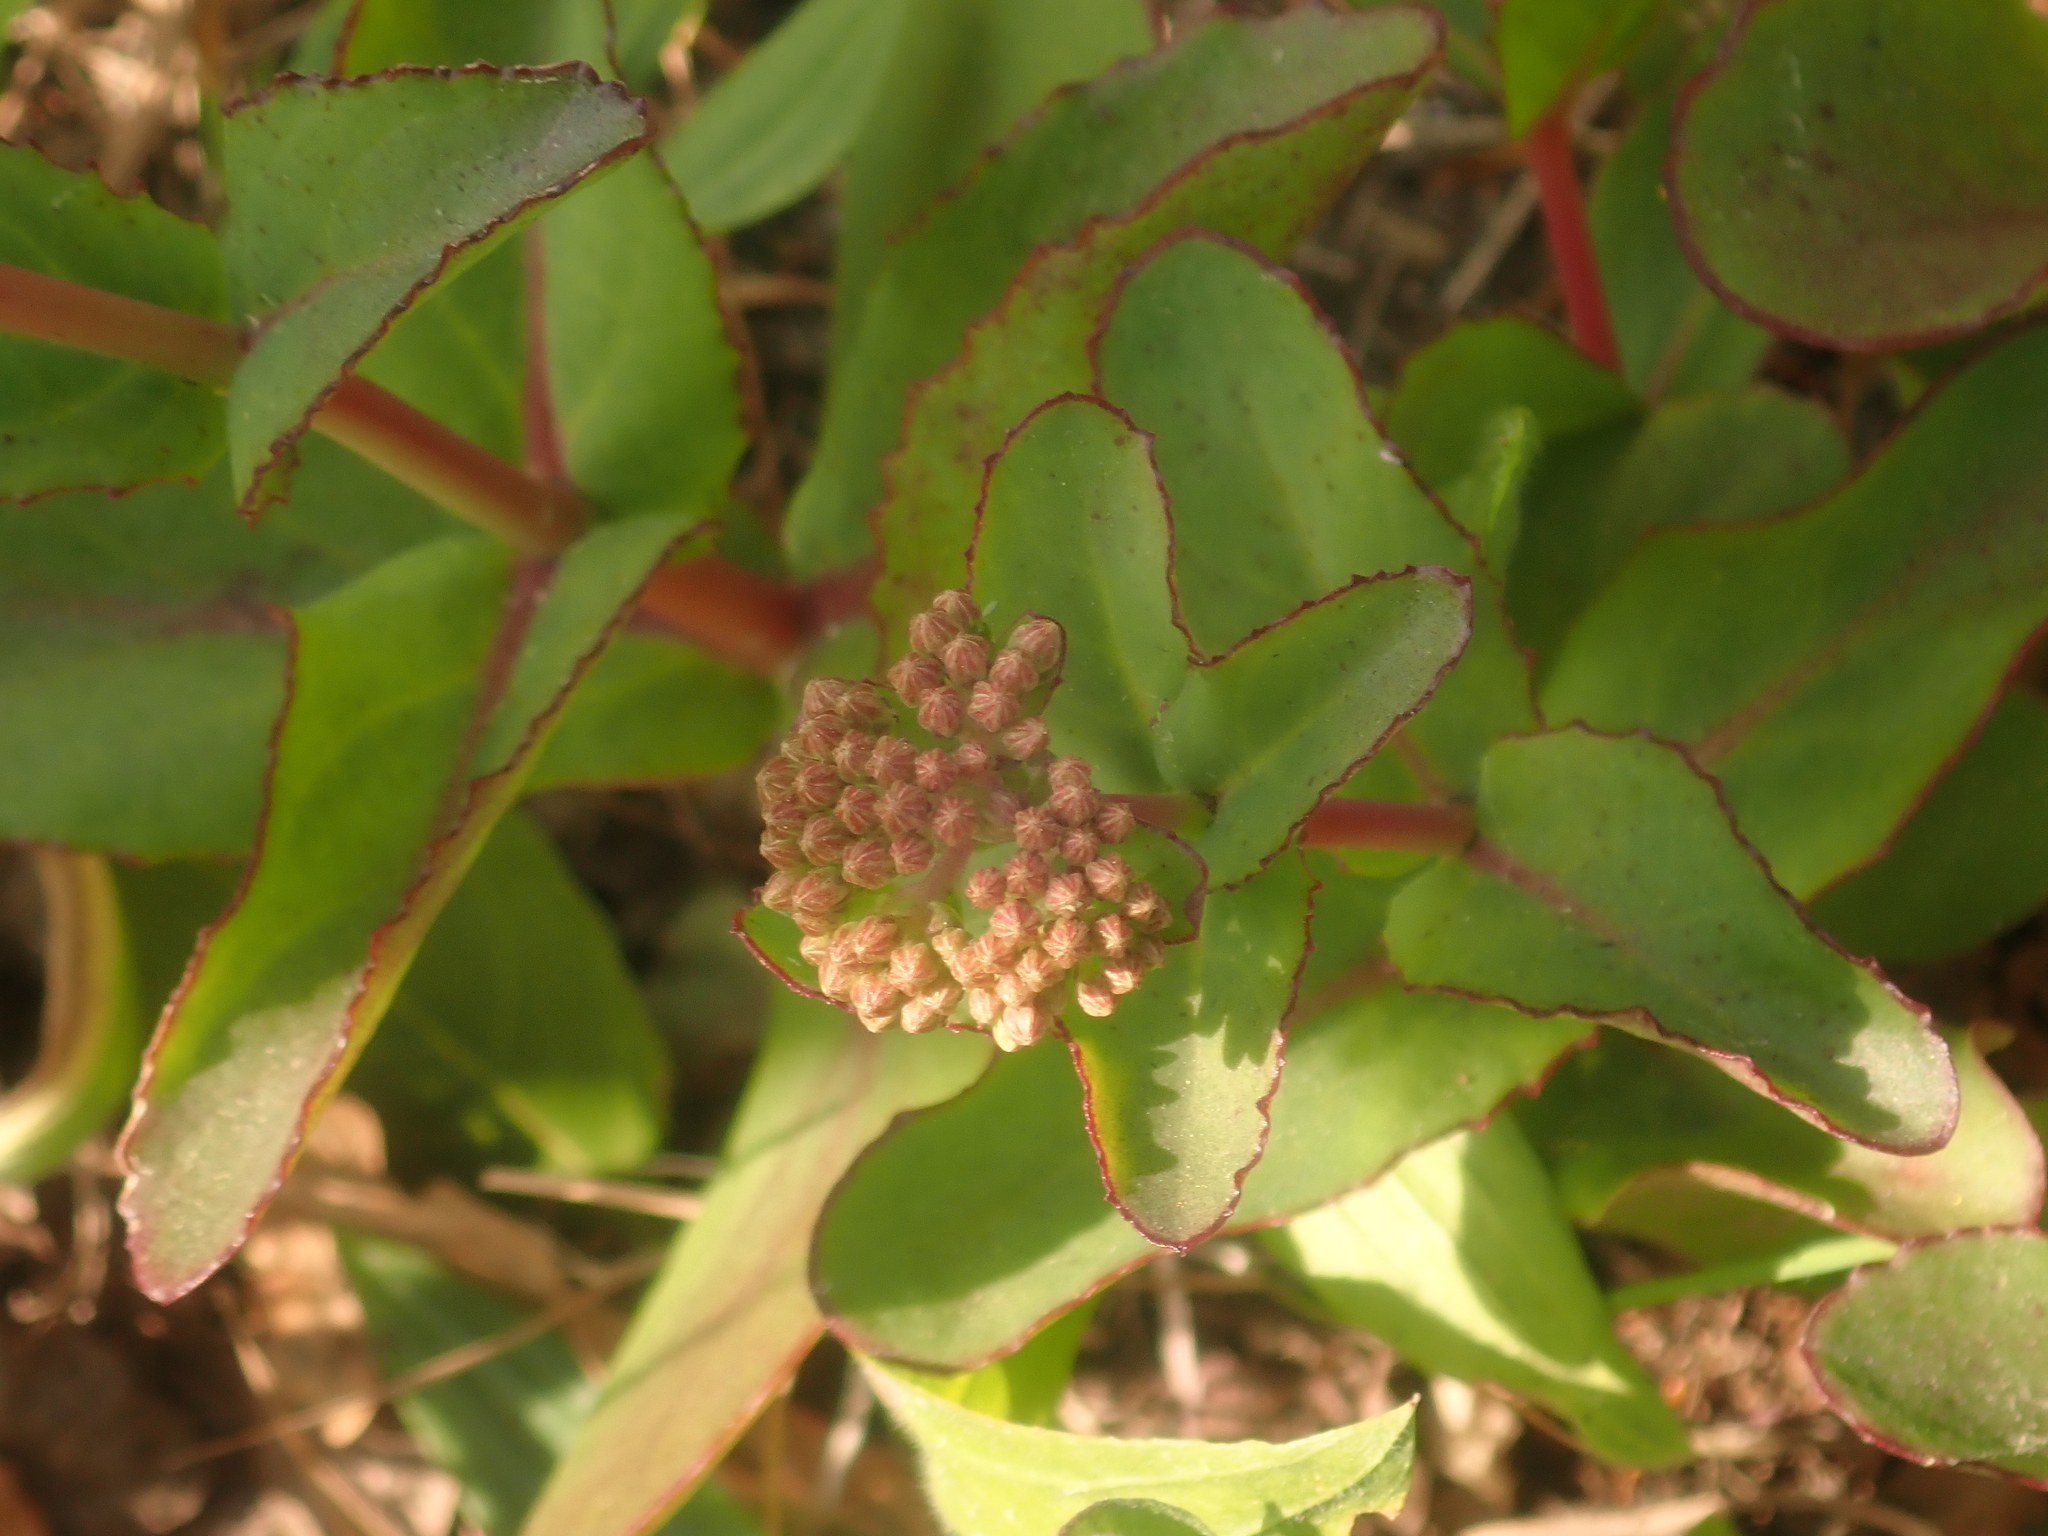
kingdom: Plantae
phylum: Tracheophyta
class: Magnoliopsida
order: Saxifragales
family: Crassulaceae
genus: Hylotelephium
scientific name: Hylotelephium maximum
